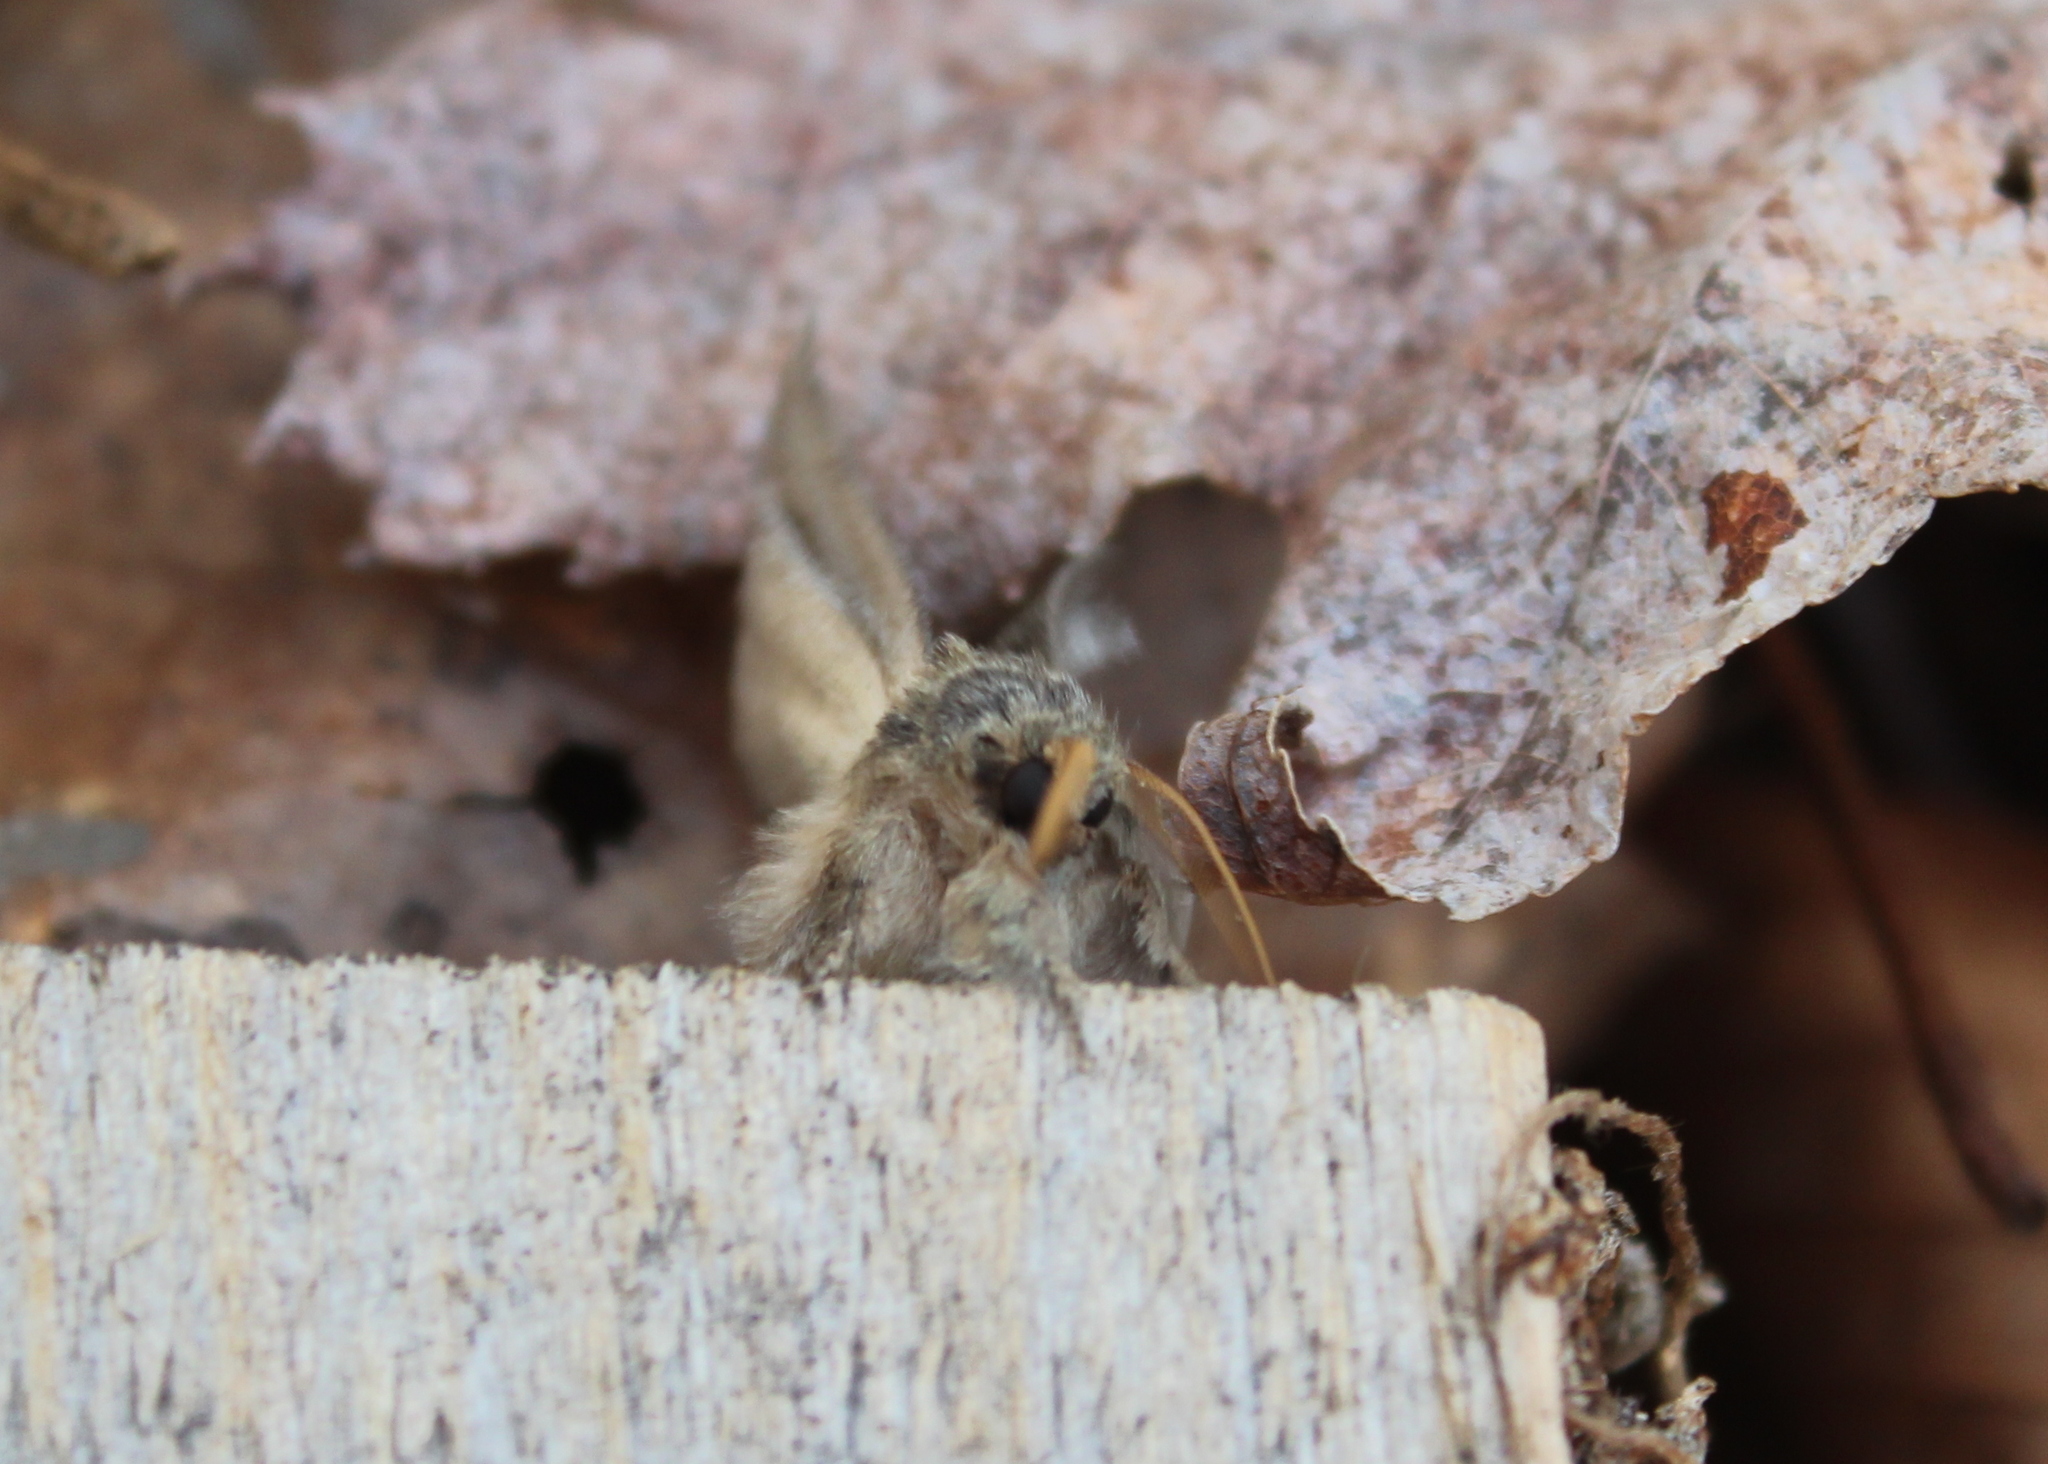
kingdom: Animalia
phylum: Arthropoda
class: Insecta
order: Lepidoptera
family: Notodontidae
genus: Disphragis
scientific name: Disphragis Cecrita guttivitta
